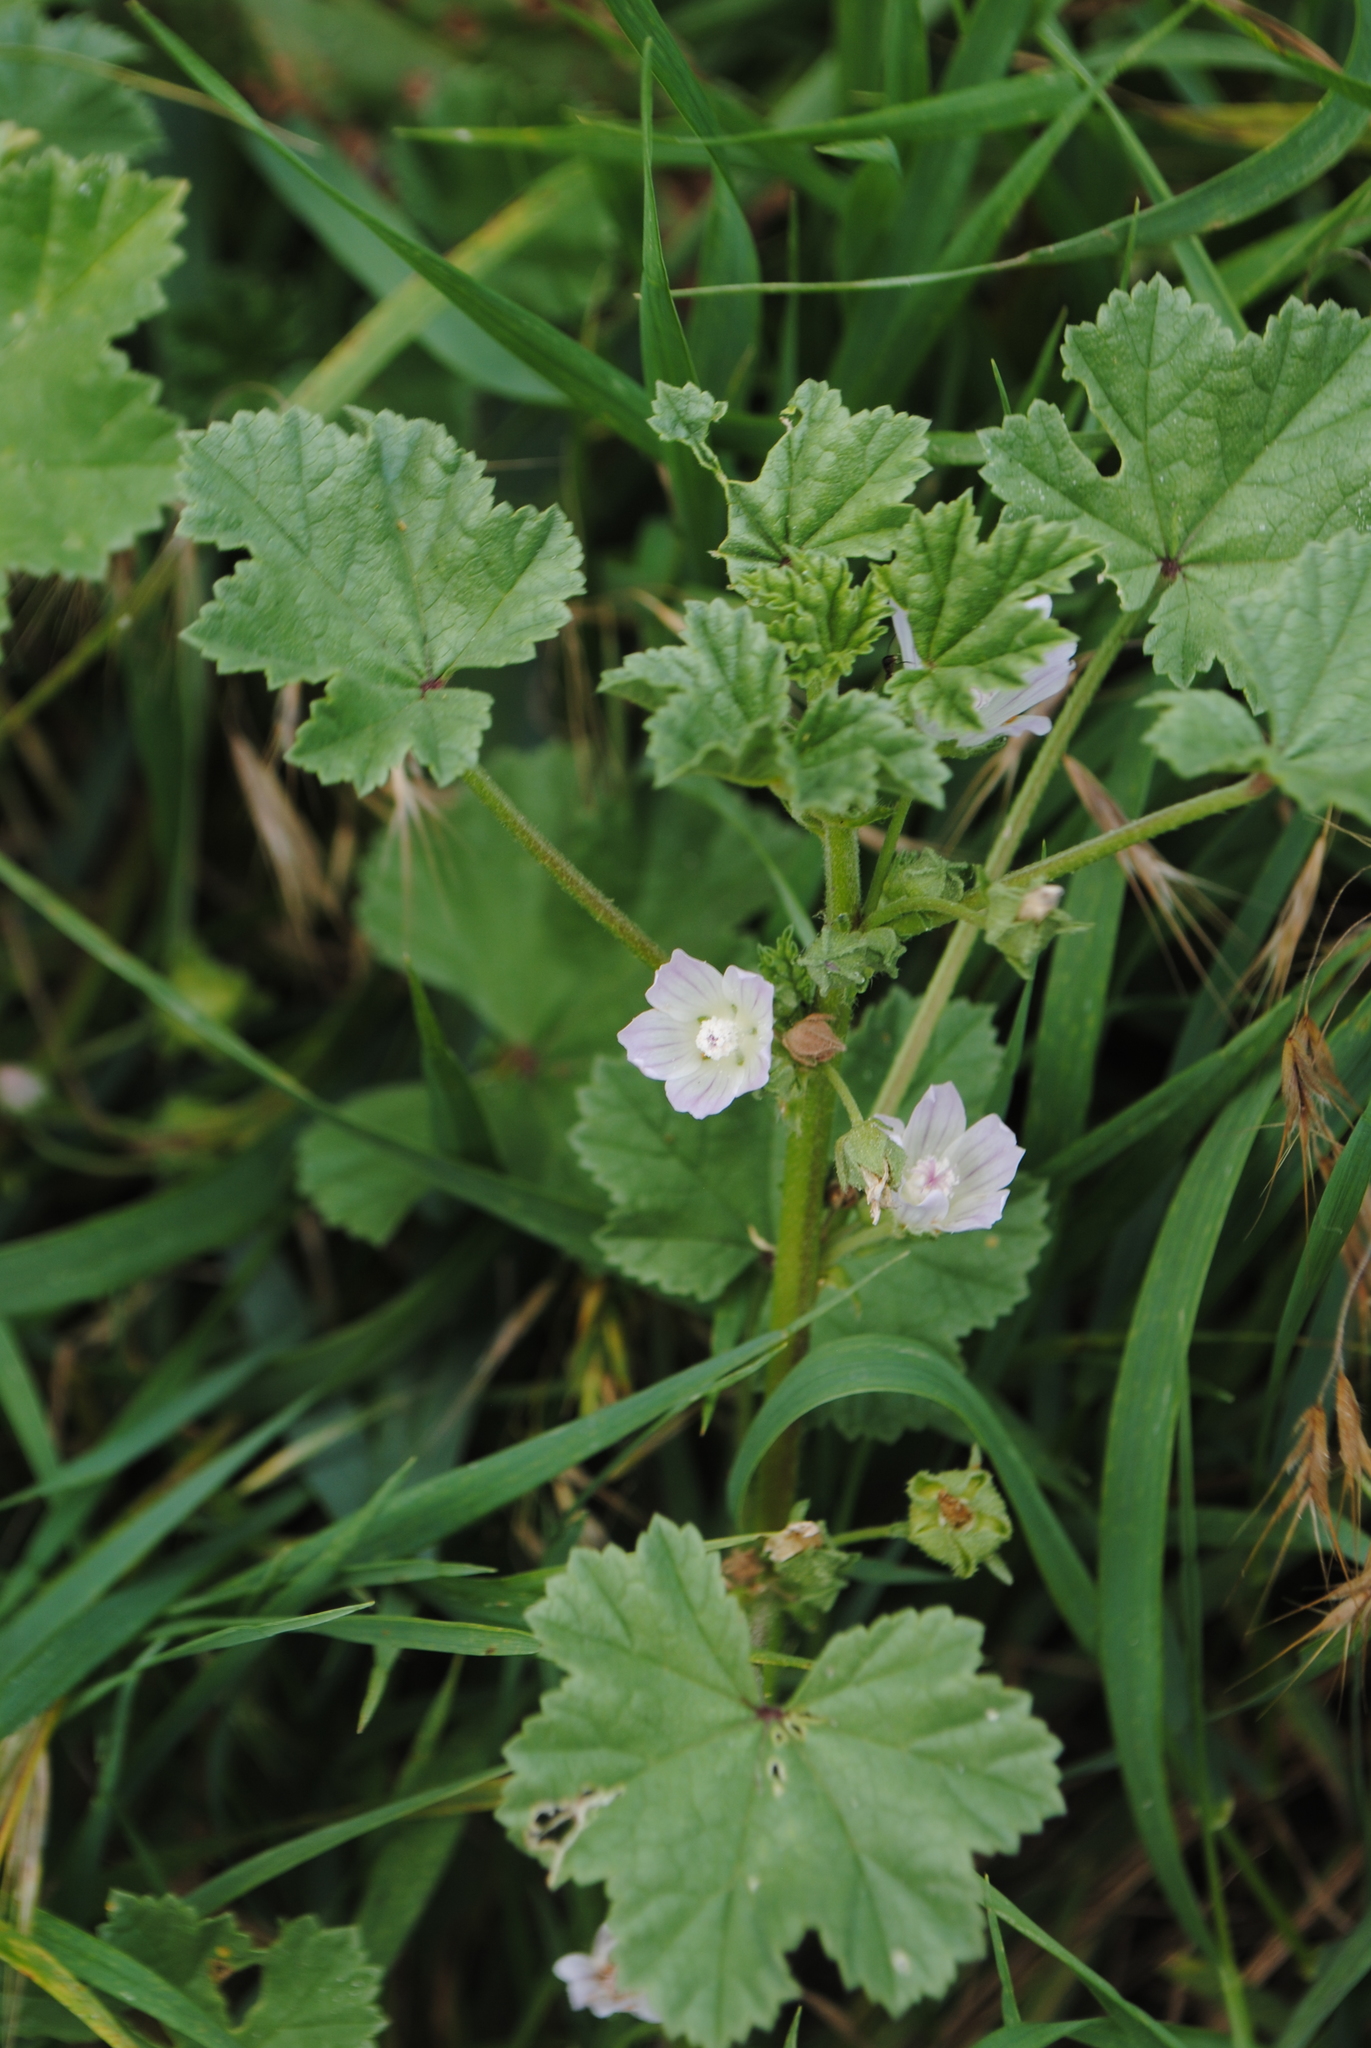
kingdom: Plantae
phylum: Tracheophyta
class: Magnoliopsida
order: Malvales
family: Malvaceae
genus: Malva
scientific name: Malva neglecta
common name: Common mallow
